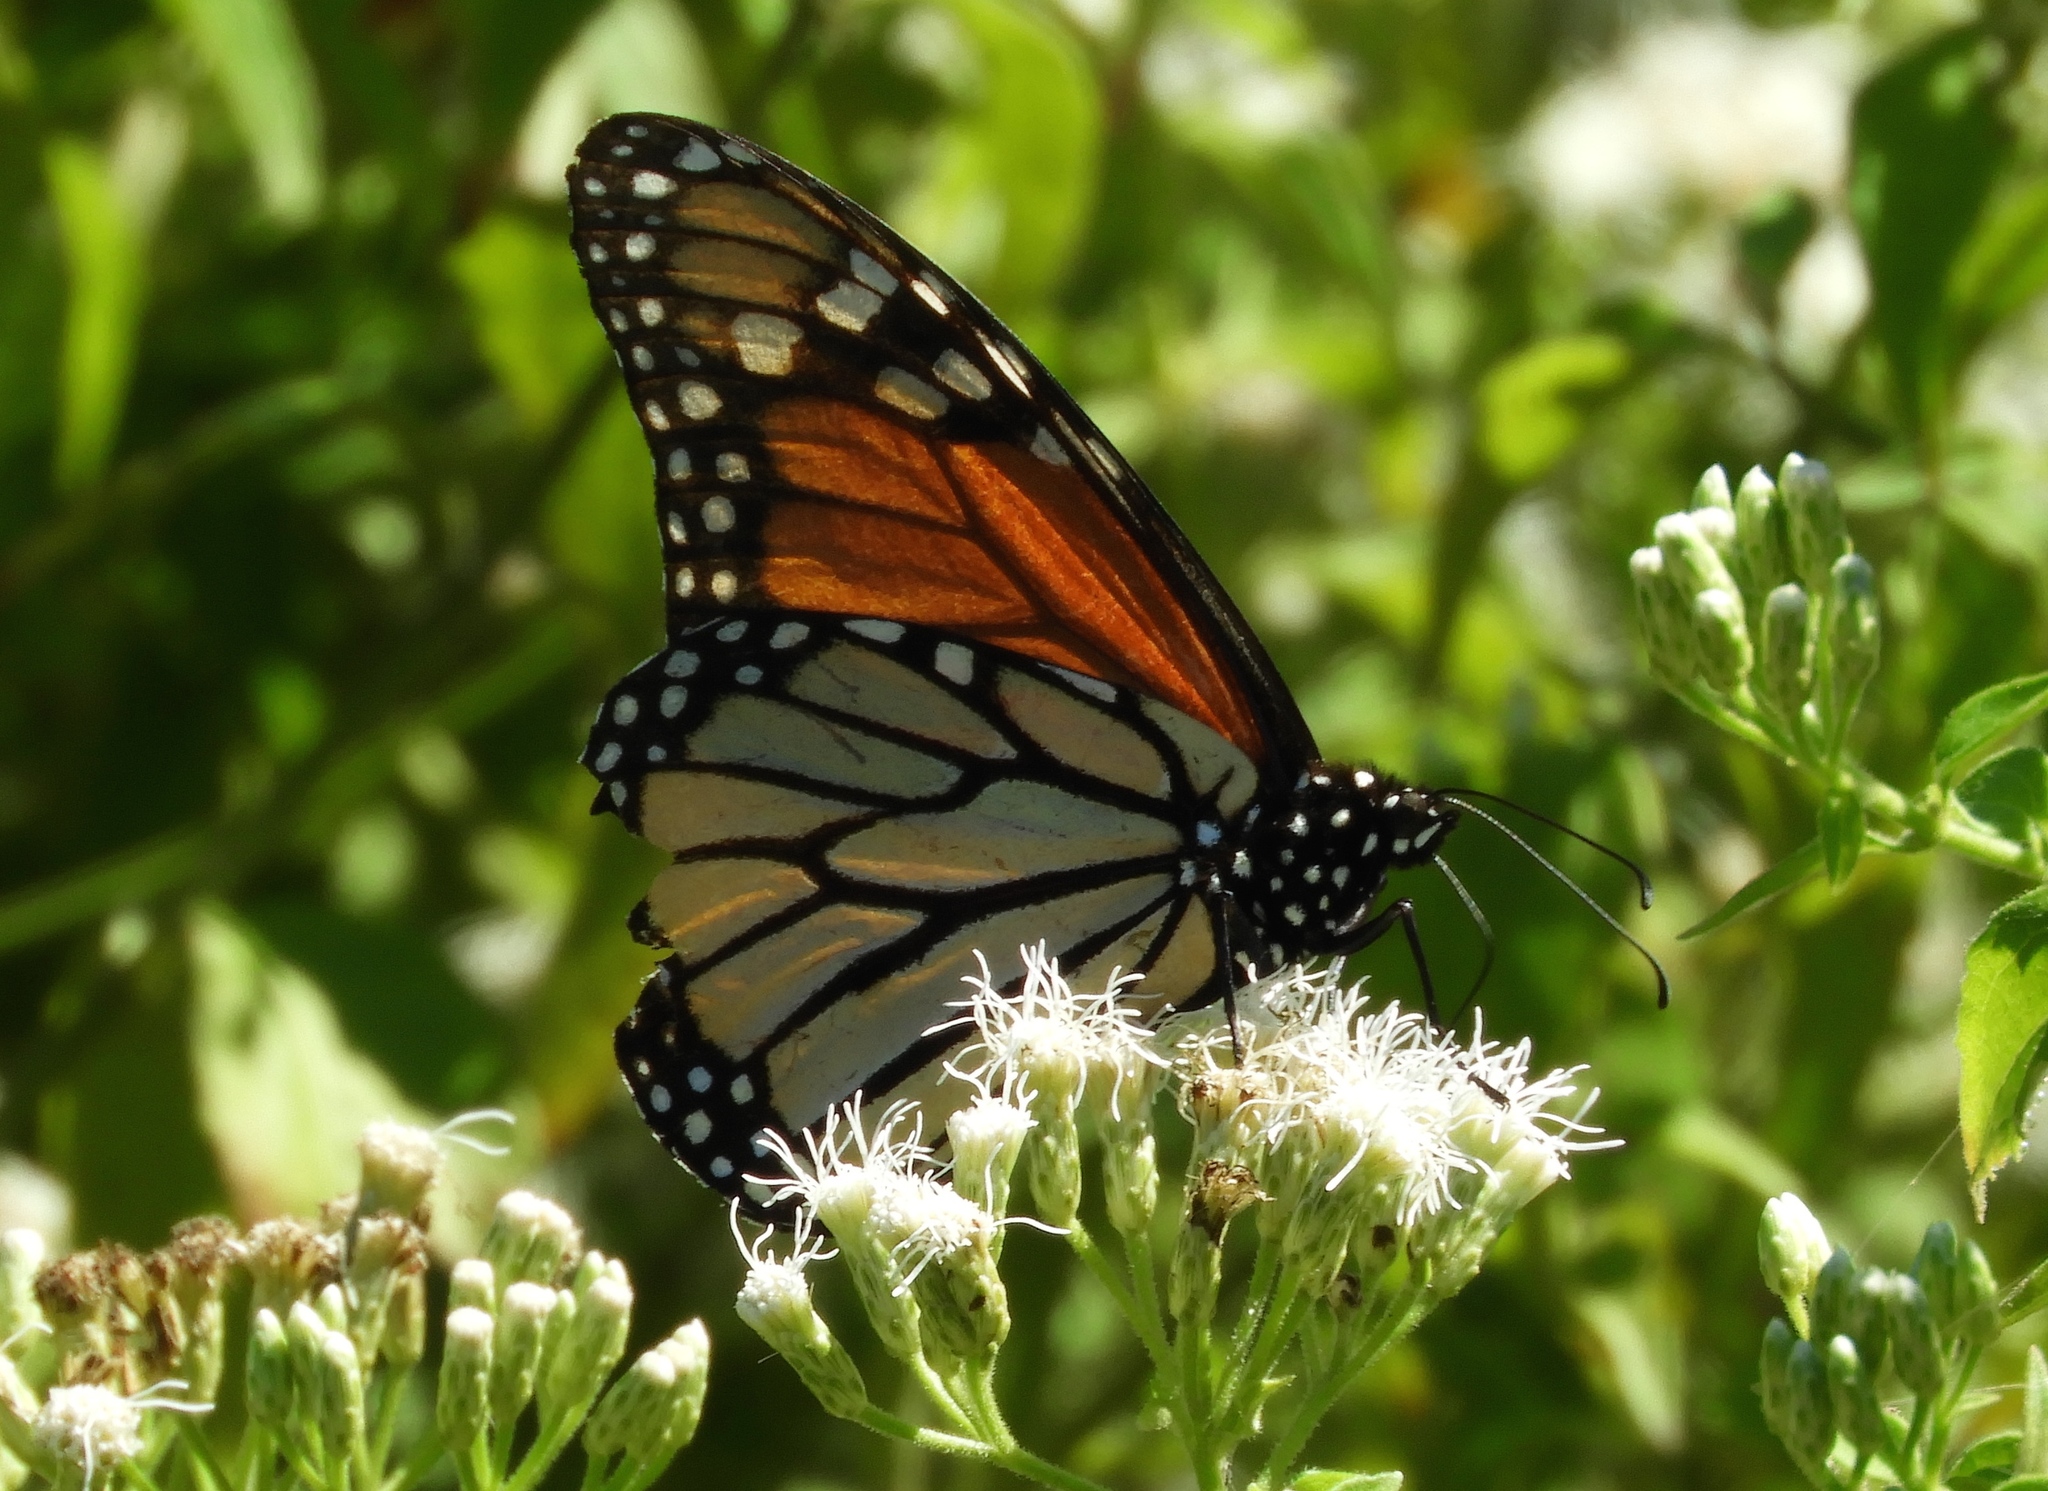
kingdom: Animalia
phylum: Arthropoda
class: Insecta
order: Lepidoptera
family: Nymphalidae
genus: Danaus
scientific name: Danaus plexippus
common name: Monarch
